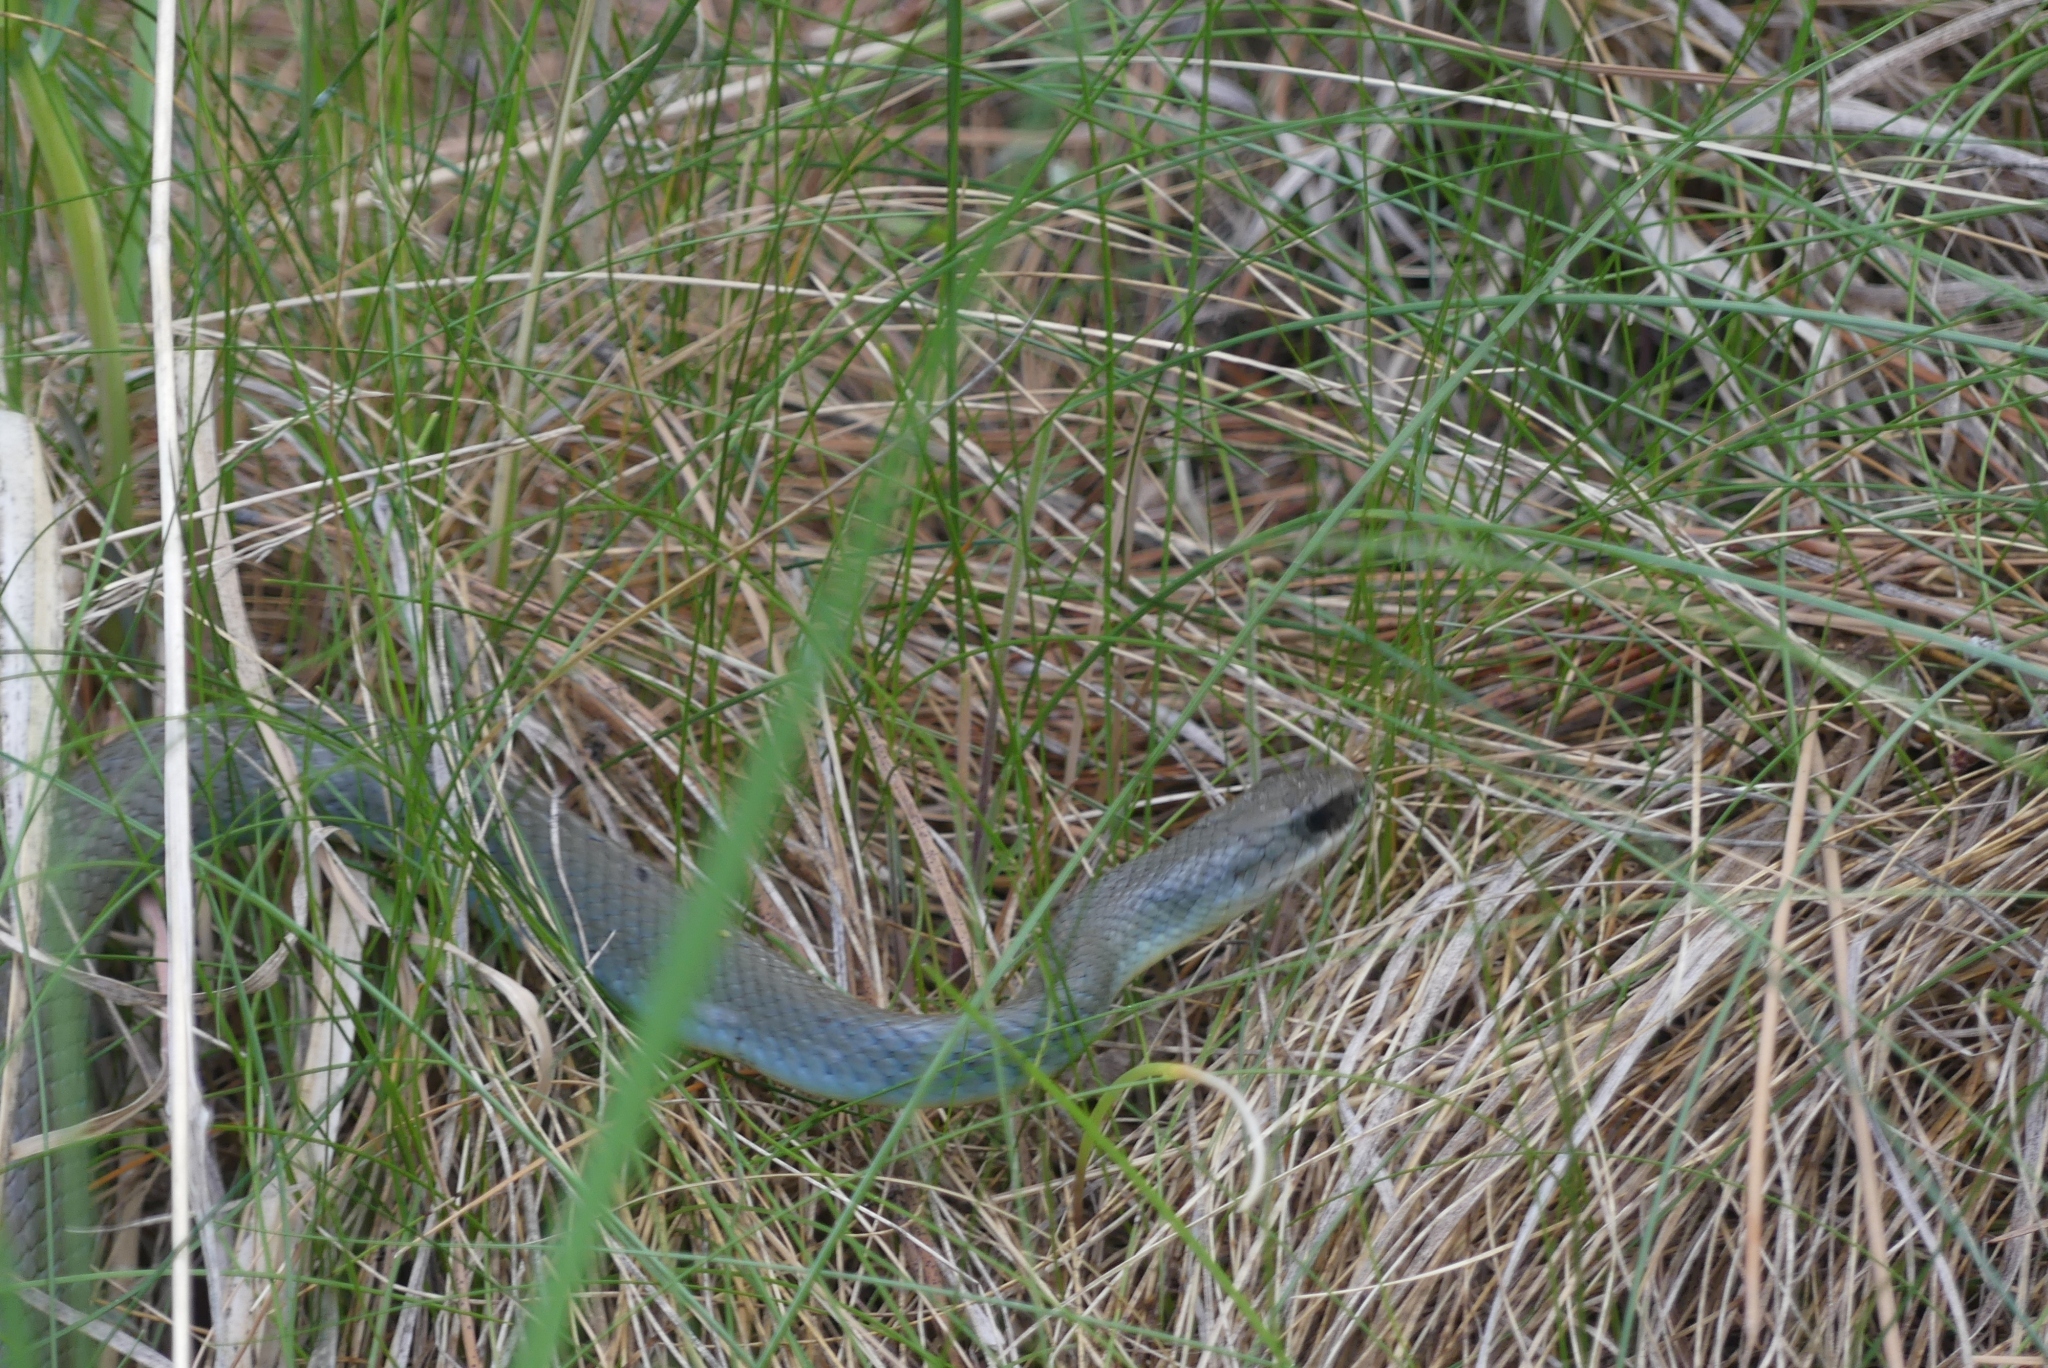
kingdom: Animalia
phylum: Chordata
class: Squamata
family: Colubridae
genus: Coluber
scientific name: Coluber constrictor
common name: Eastern racer
